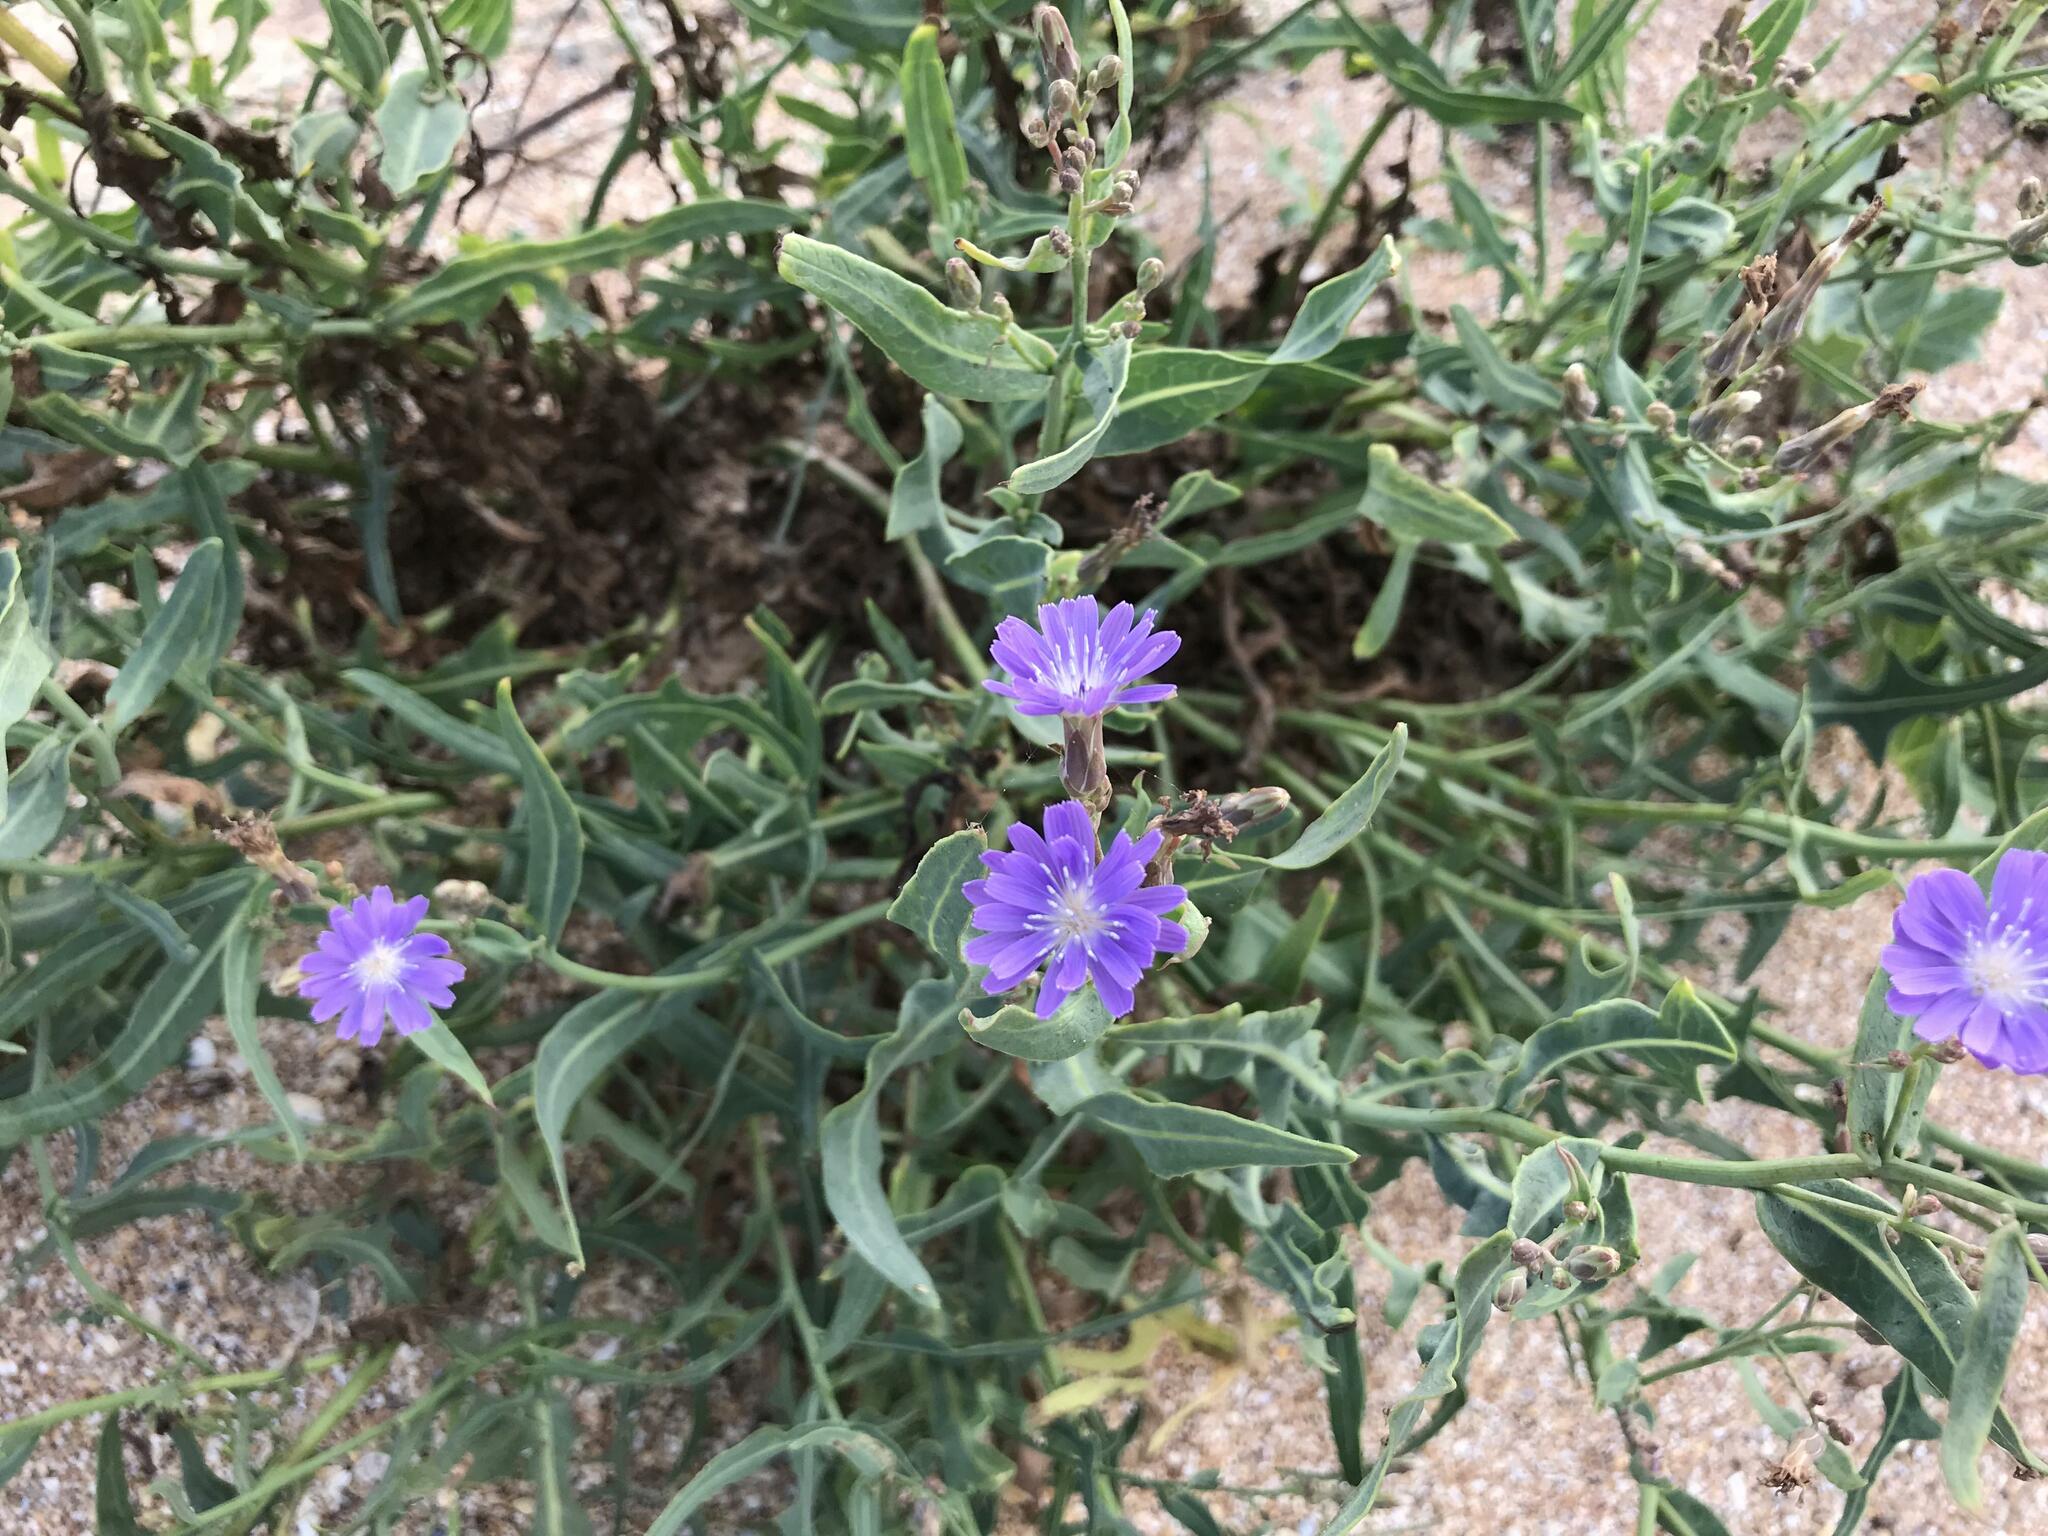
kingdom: Plantae
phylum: Tracheophyta
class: Magnoliopsida
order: Asterales
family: Asteraceae
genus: Lactuca
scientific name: Lactuca tatarica
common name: Blue lettuce
